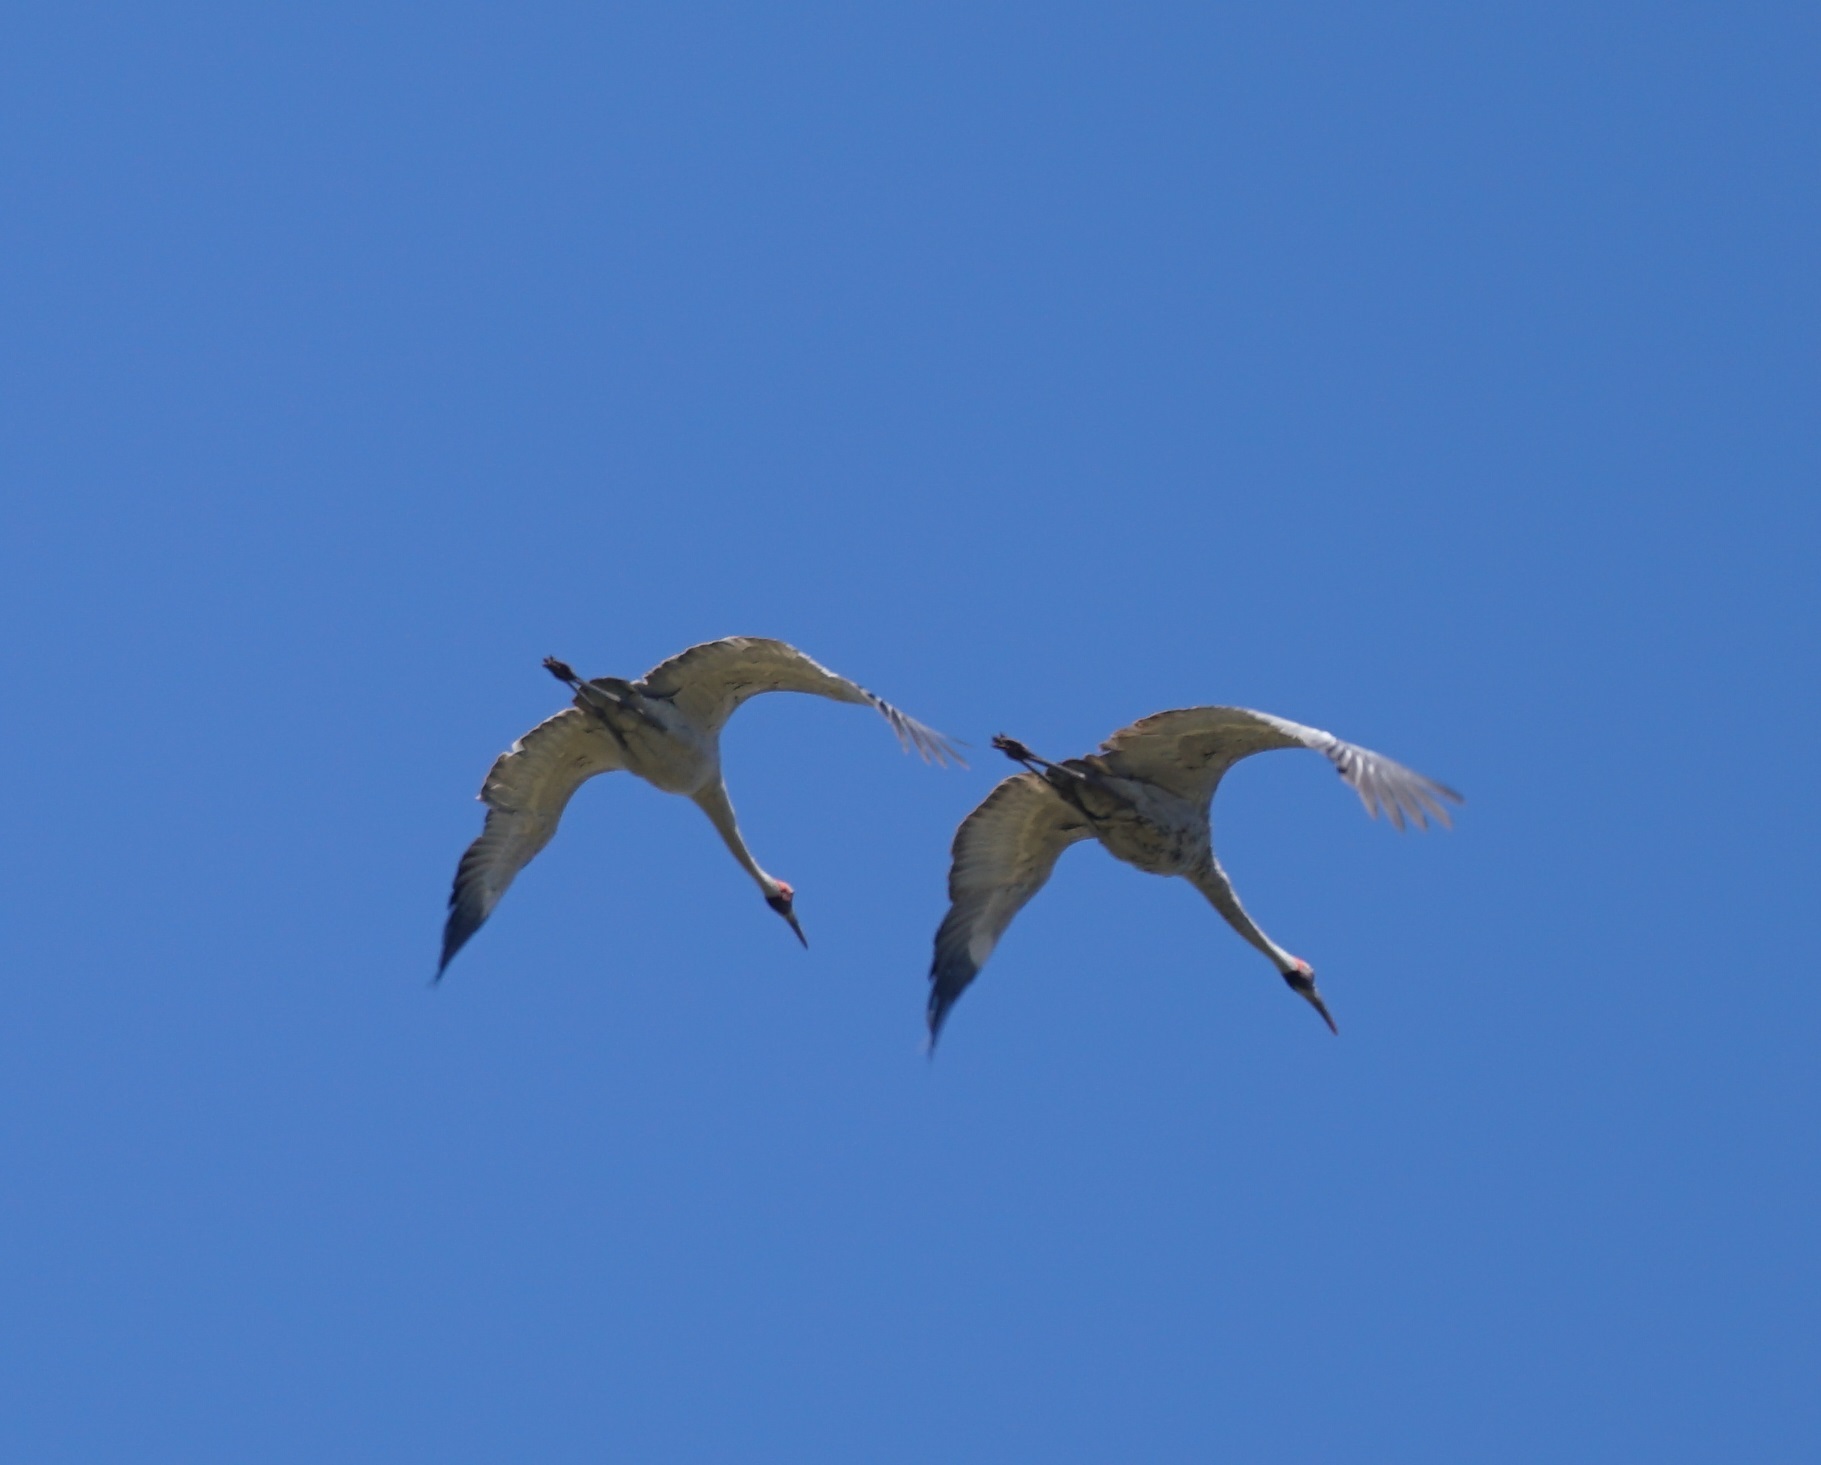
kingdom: Animalia
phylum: Chordata
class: Aves
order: Gruiformes
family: Gruidae
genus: Grus
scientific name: Grus rubicunda
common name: Brolga
